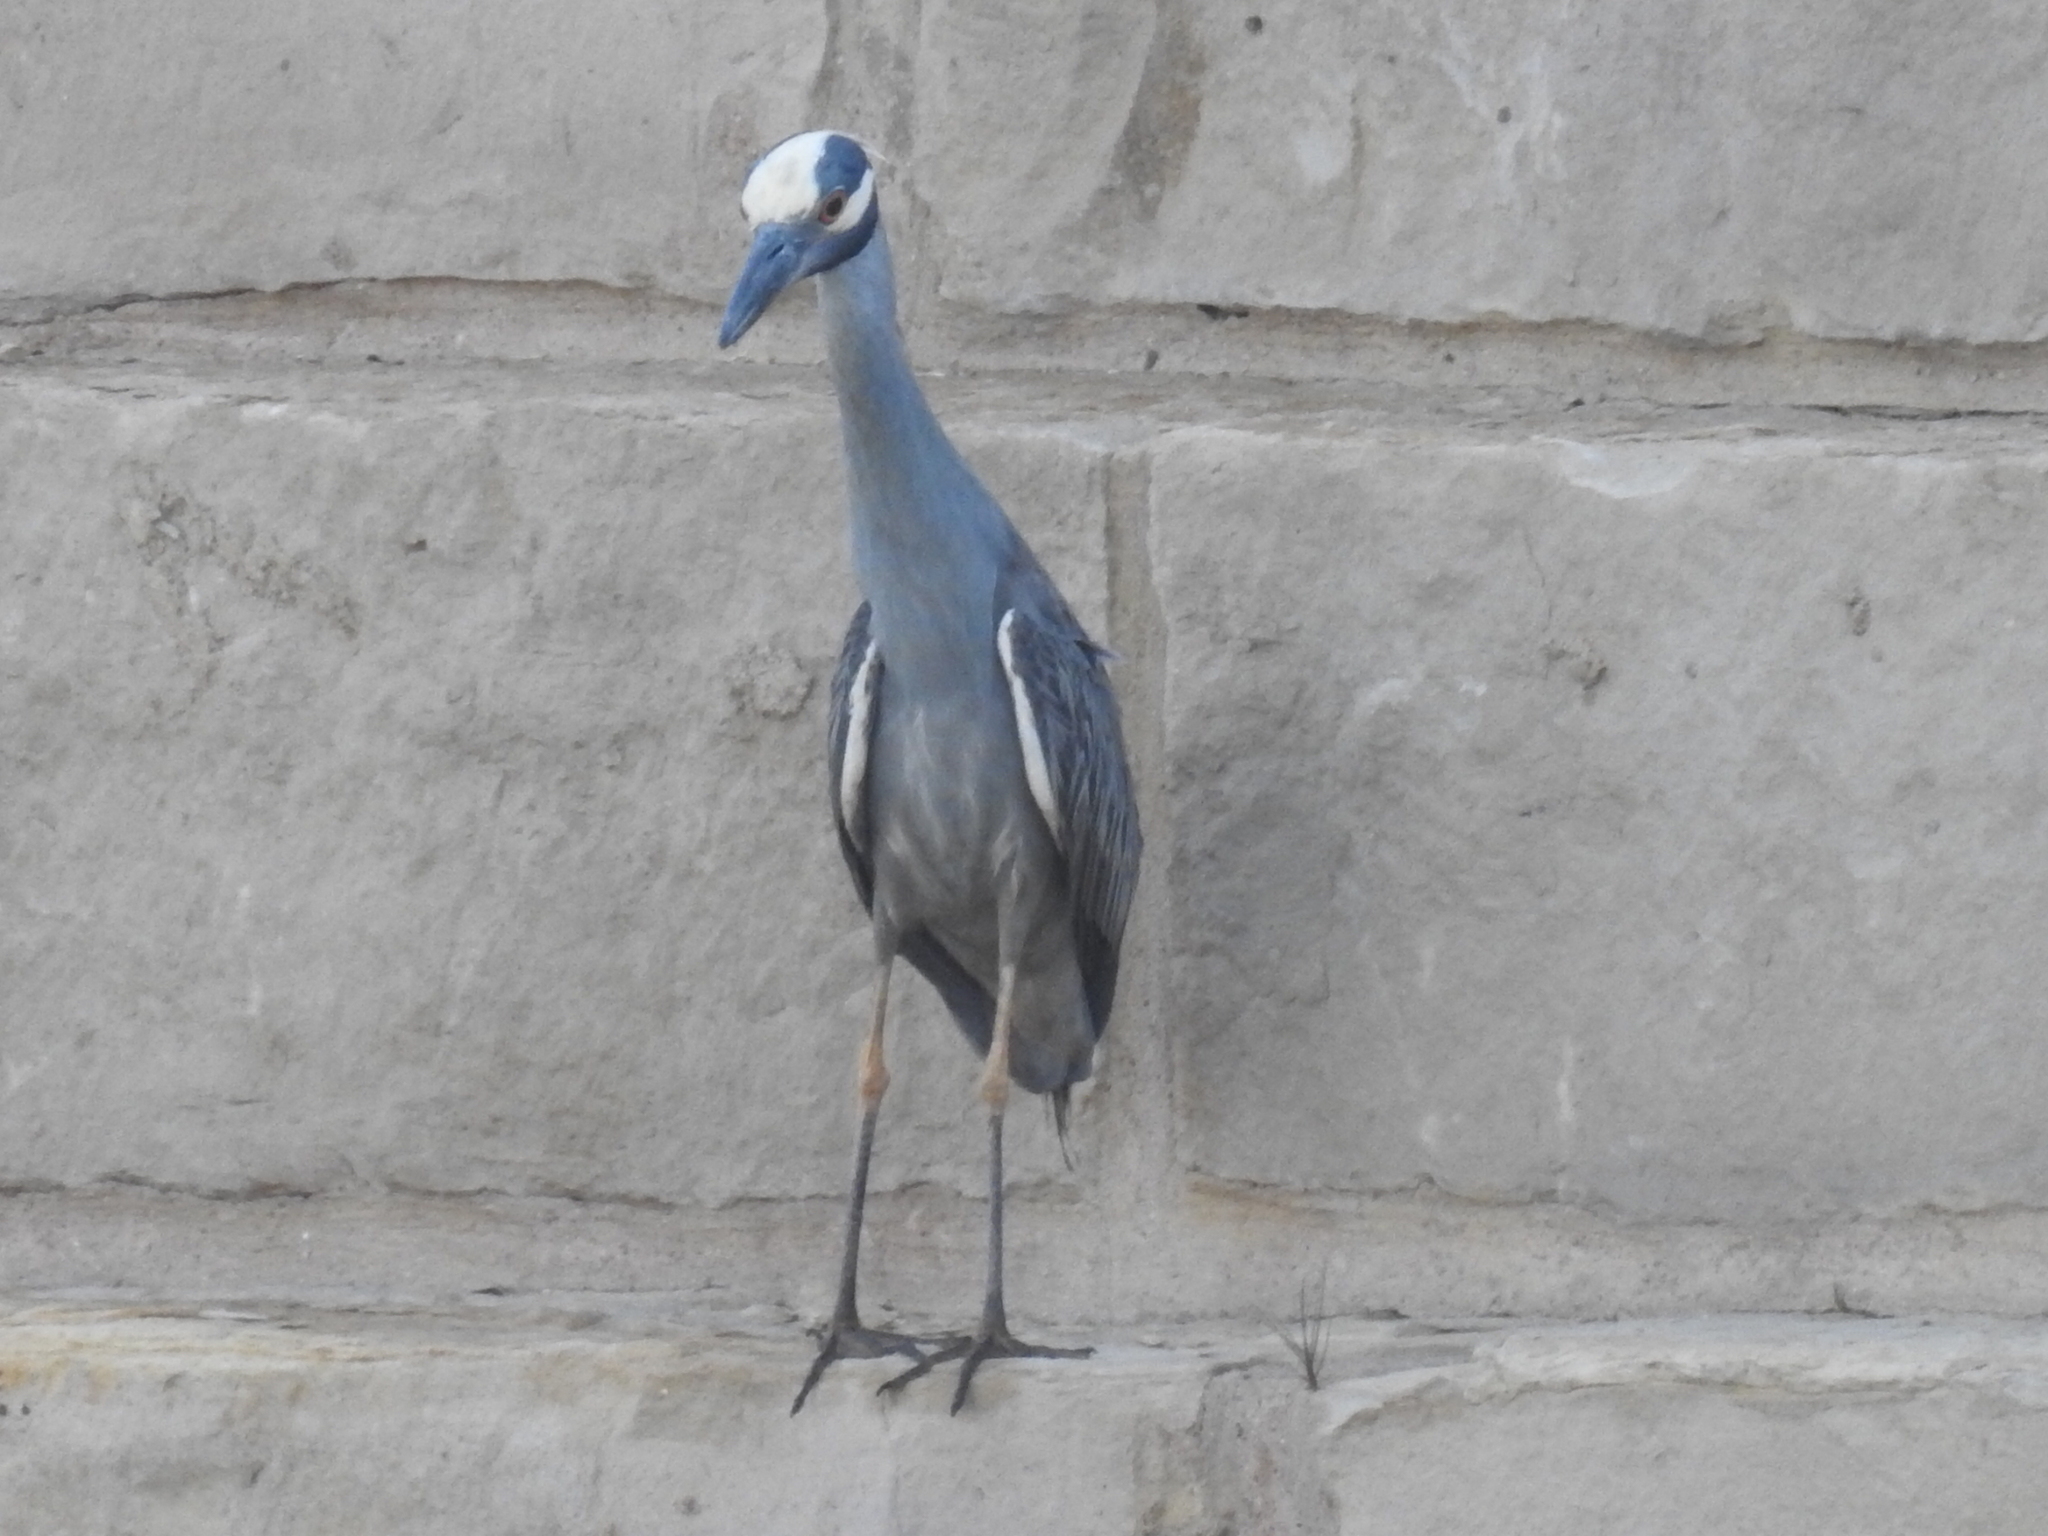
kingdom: Animalia
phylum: Chordata
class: Aves
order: Pelecaniformes
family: Ardeidae
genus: Nyctanassa
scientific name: Nyctanassa violacea
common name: Yellow-crowned night heron
